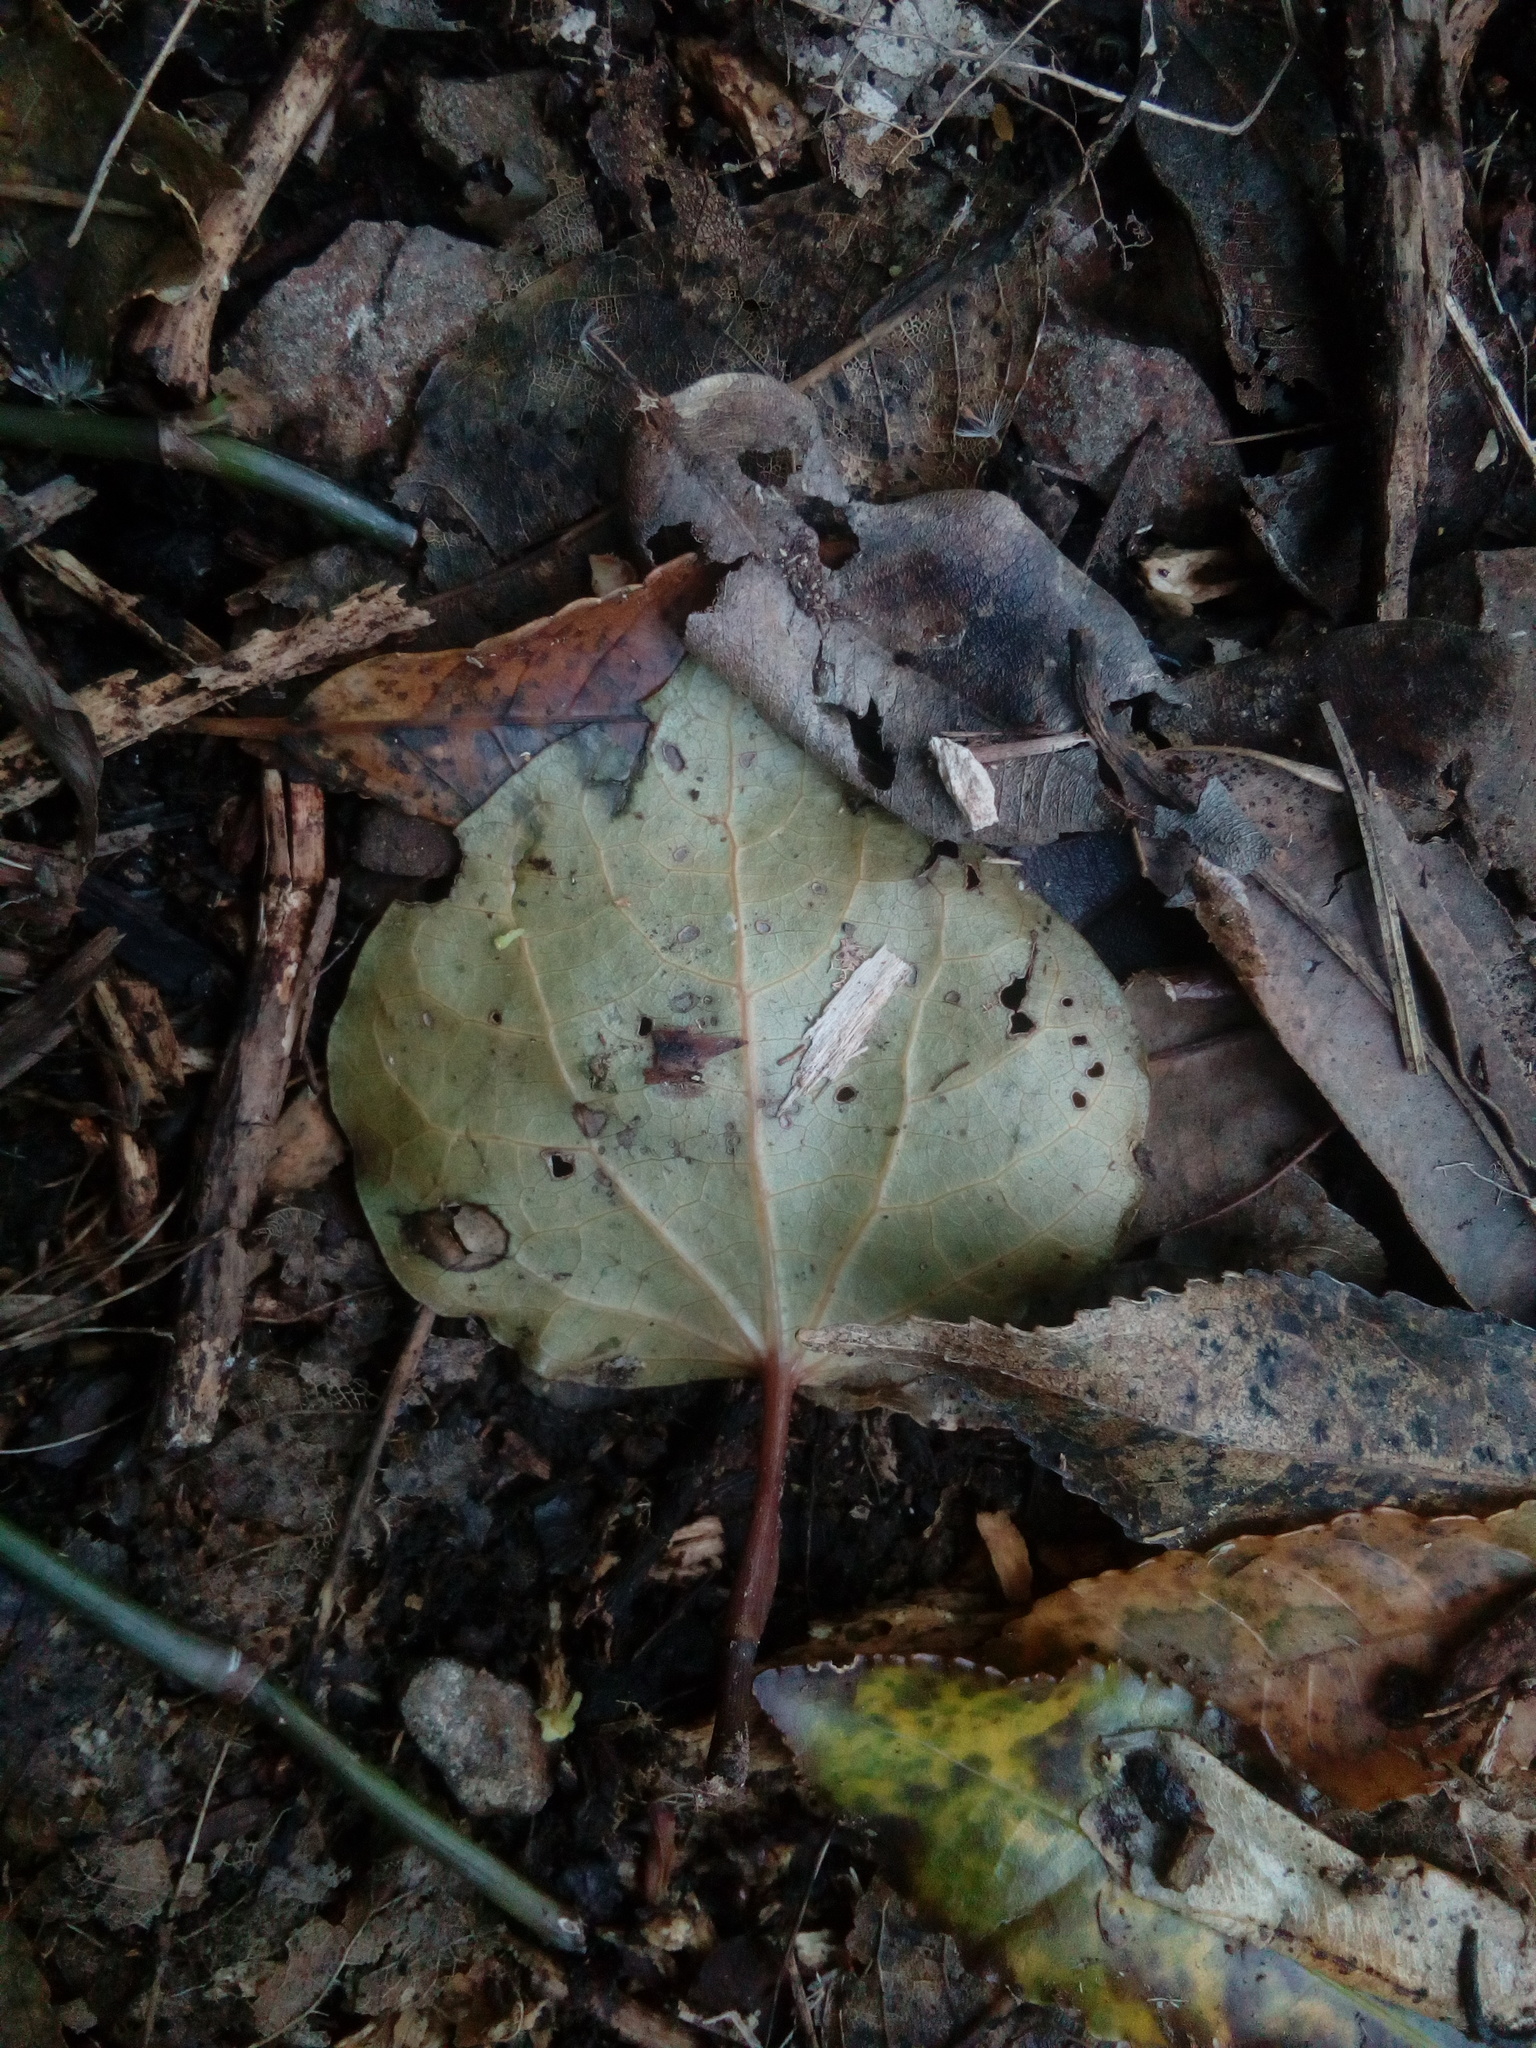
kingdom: Plantae
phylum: Tracheophyta
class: Magnoliopsida
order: Piperales
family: Piperaceae
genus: Macropiper
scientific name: Macropiper excelsum
